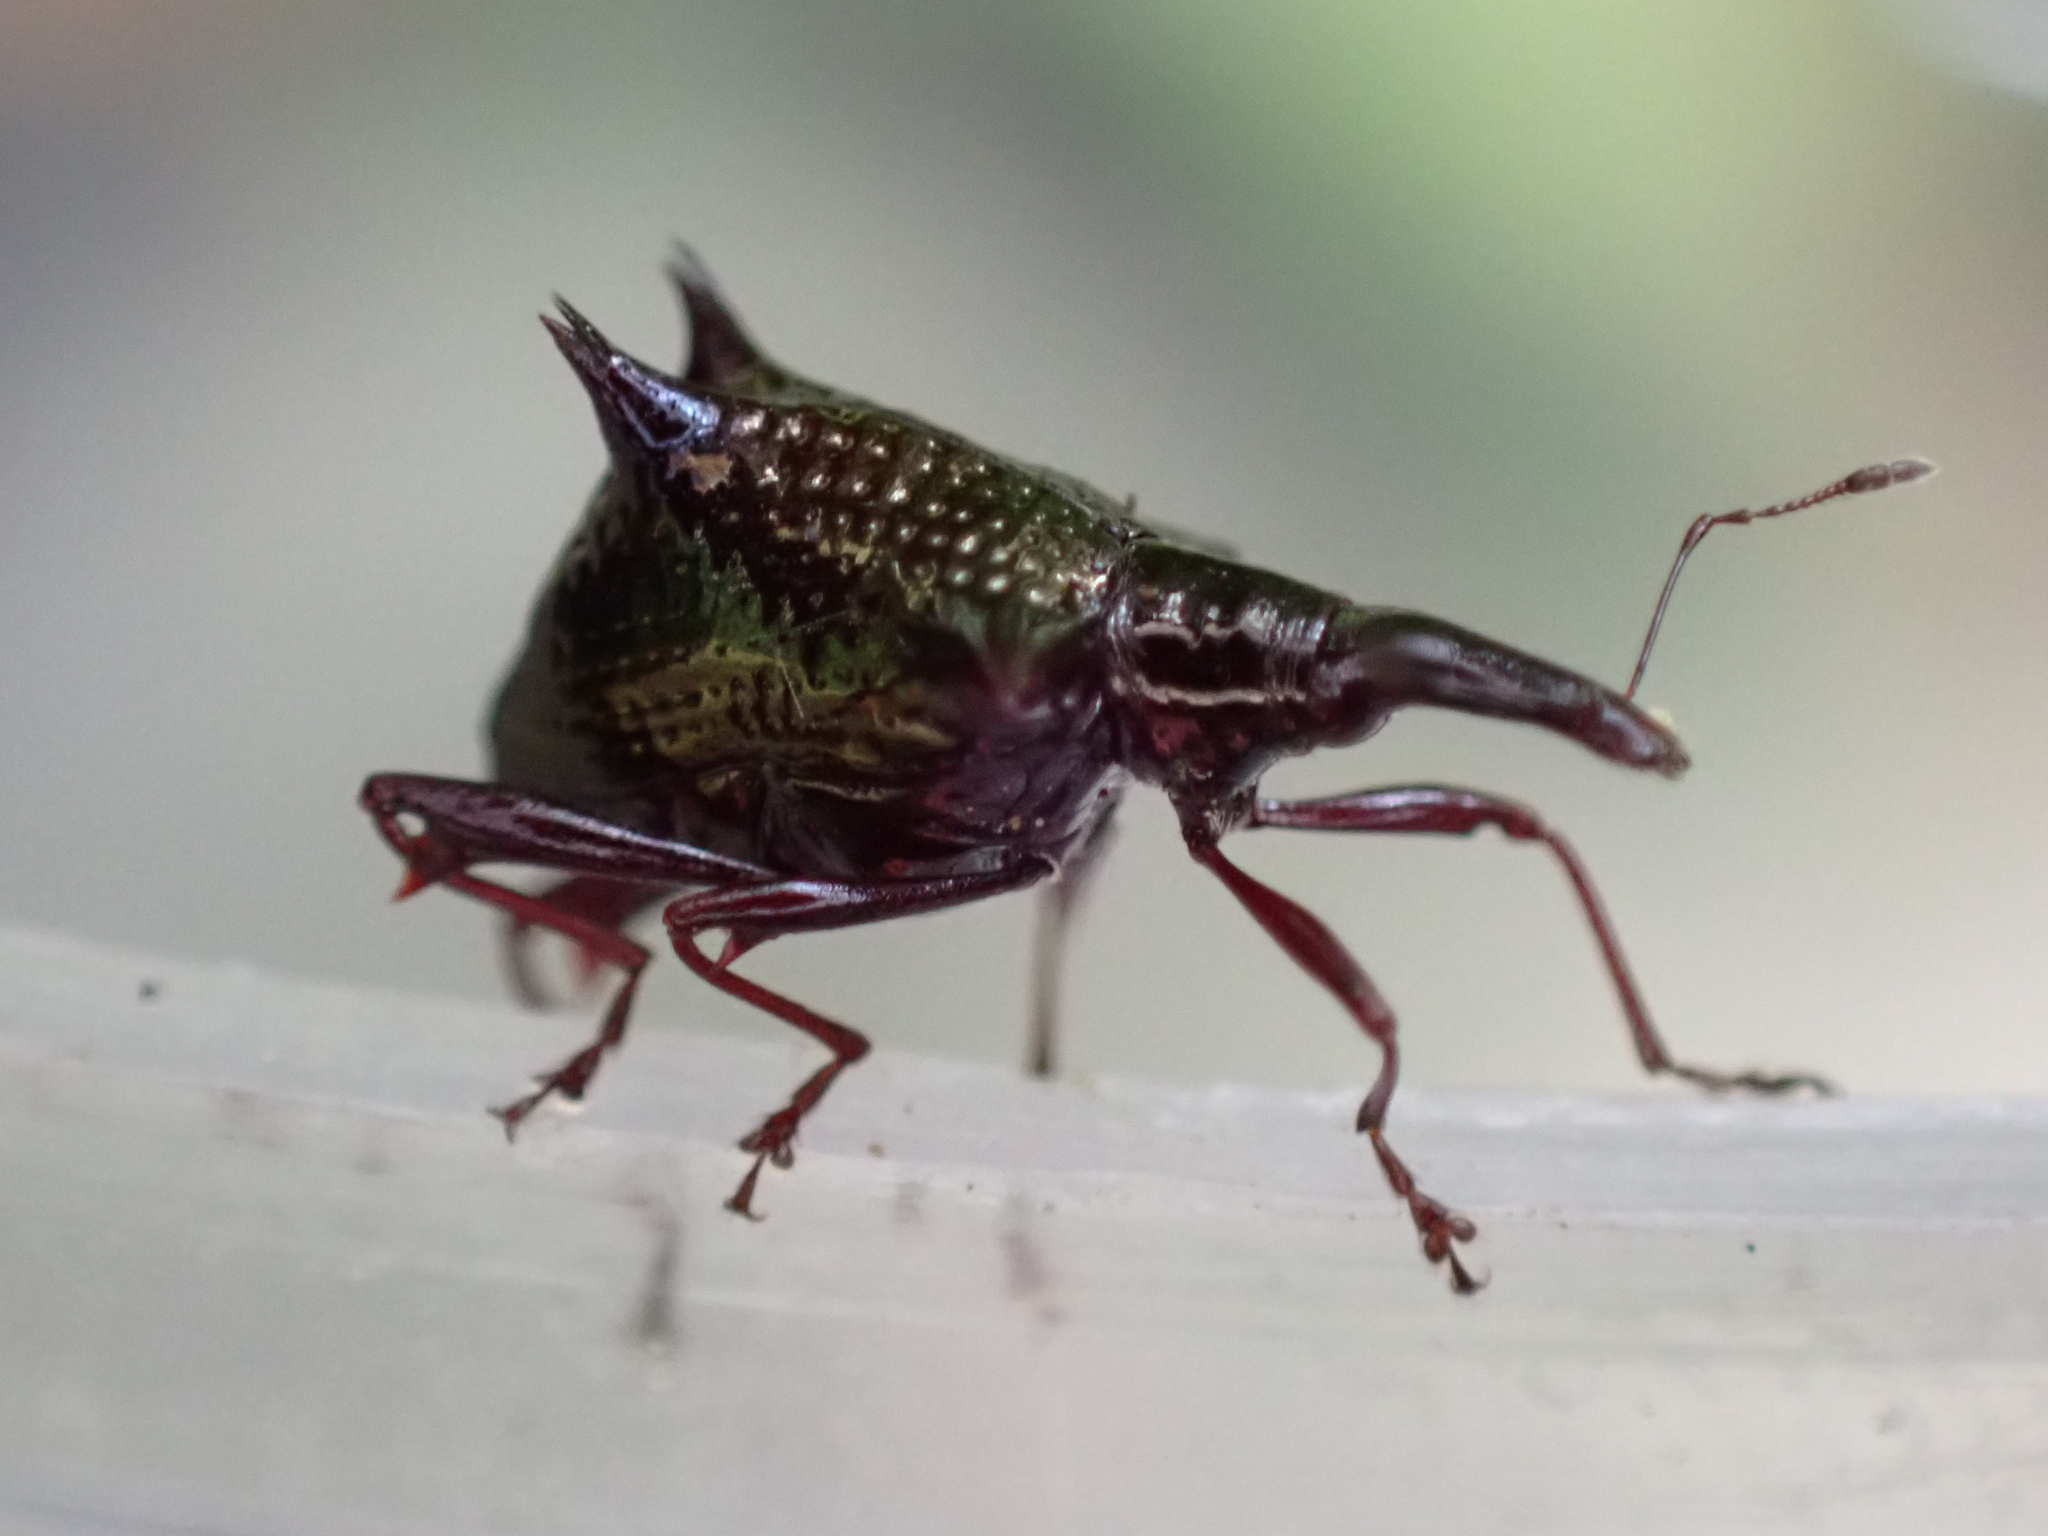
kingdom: Animalia
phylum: Arthropoda
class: Insecta
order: Coleoptera
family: Curculionidae
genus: Scolopterus
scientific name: Scolopterus aequus
